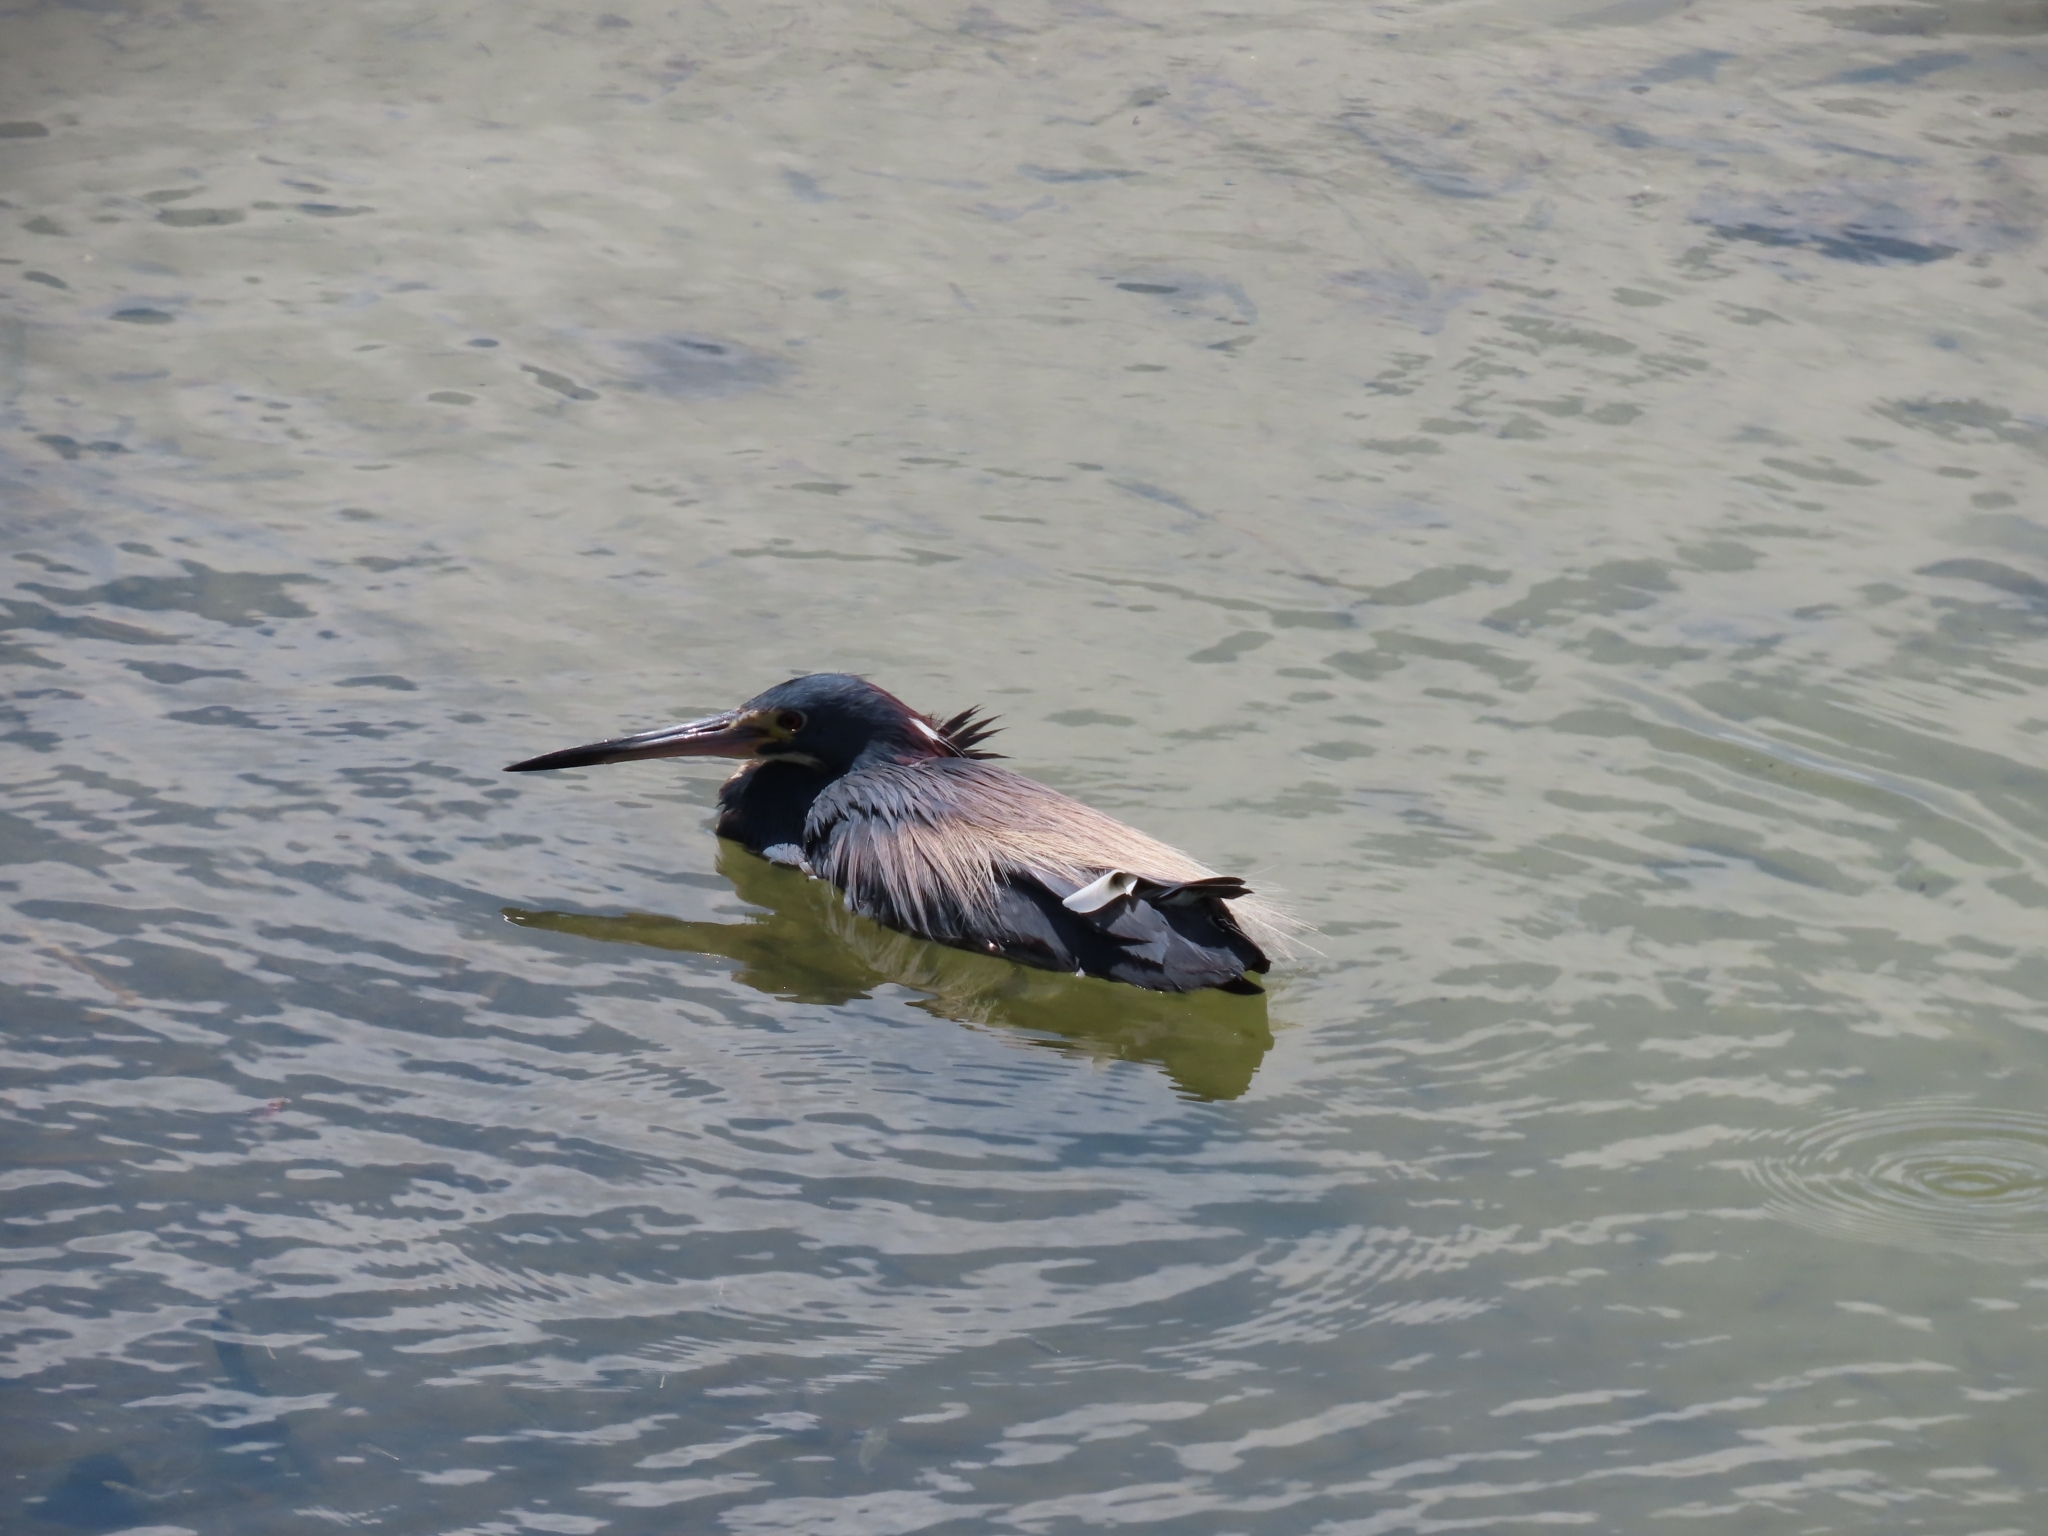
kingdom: Animalia
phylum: Chordata
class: Aves
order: Pelecaniformes
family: Ardeidae
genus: Egretta
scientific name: Egretta tricolor
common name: Tricolored heron
